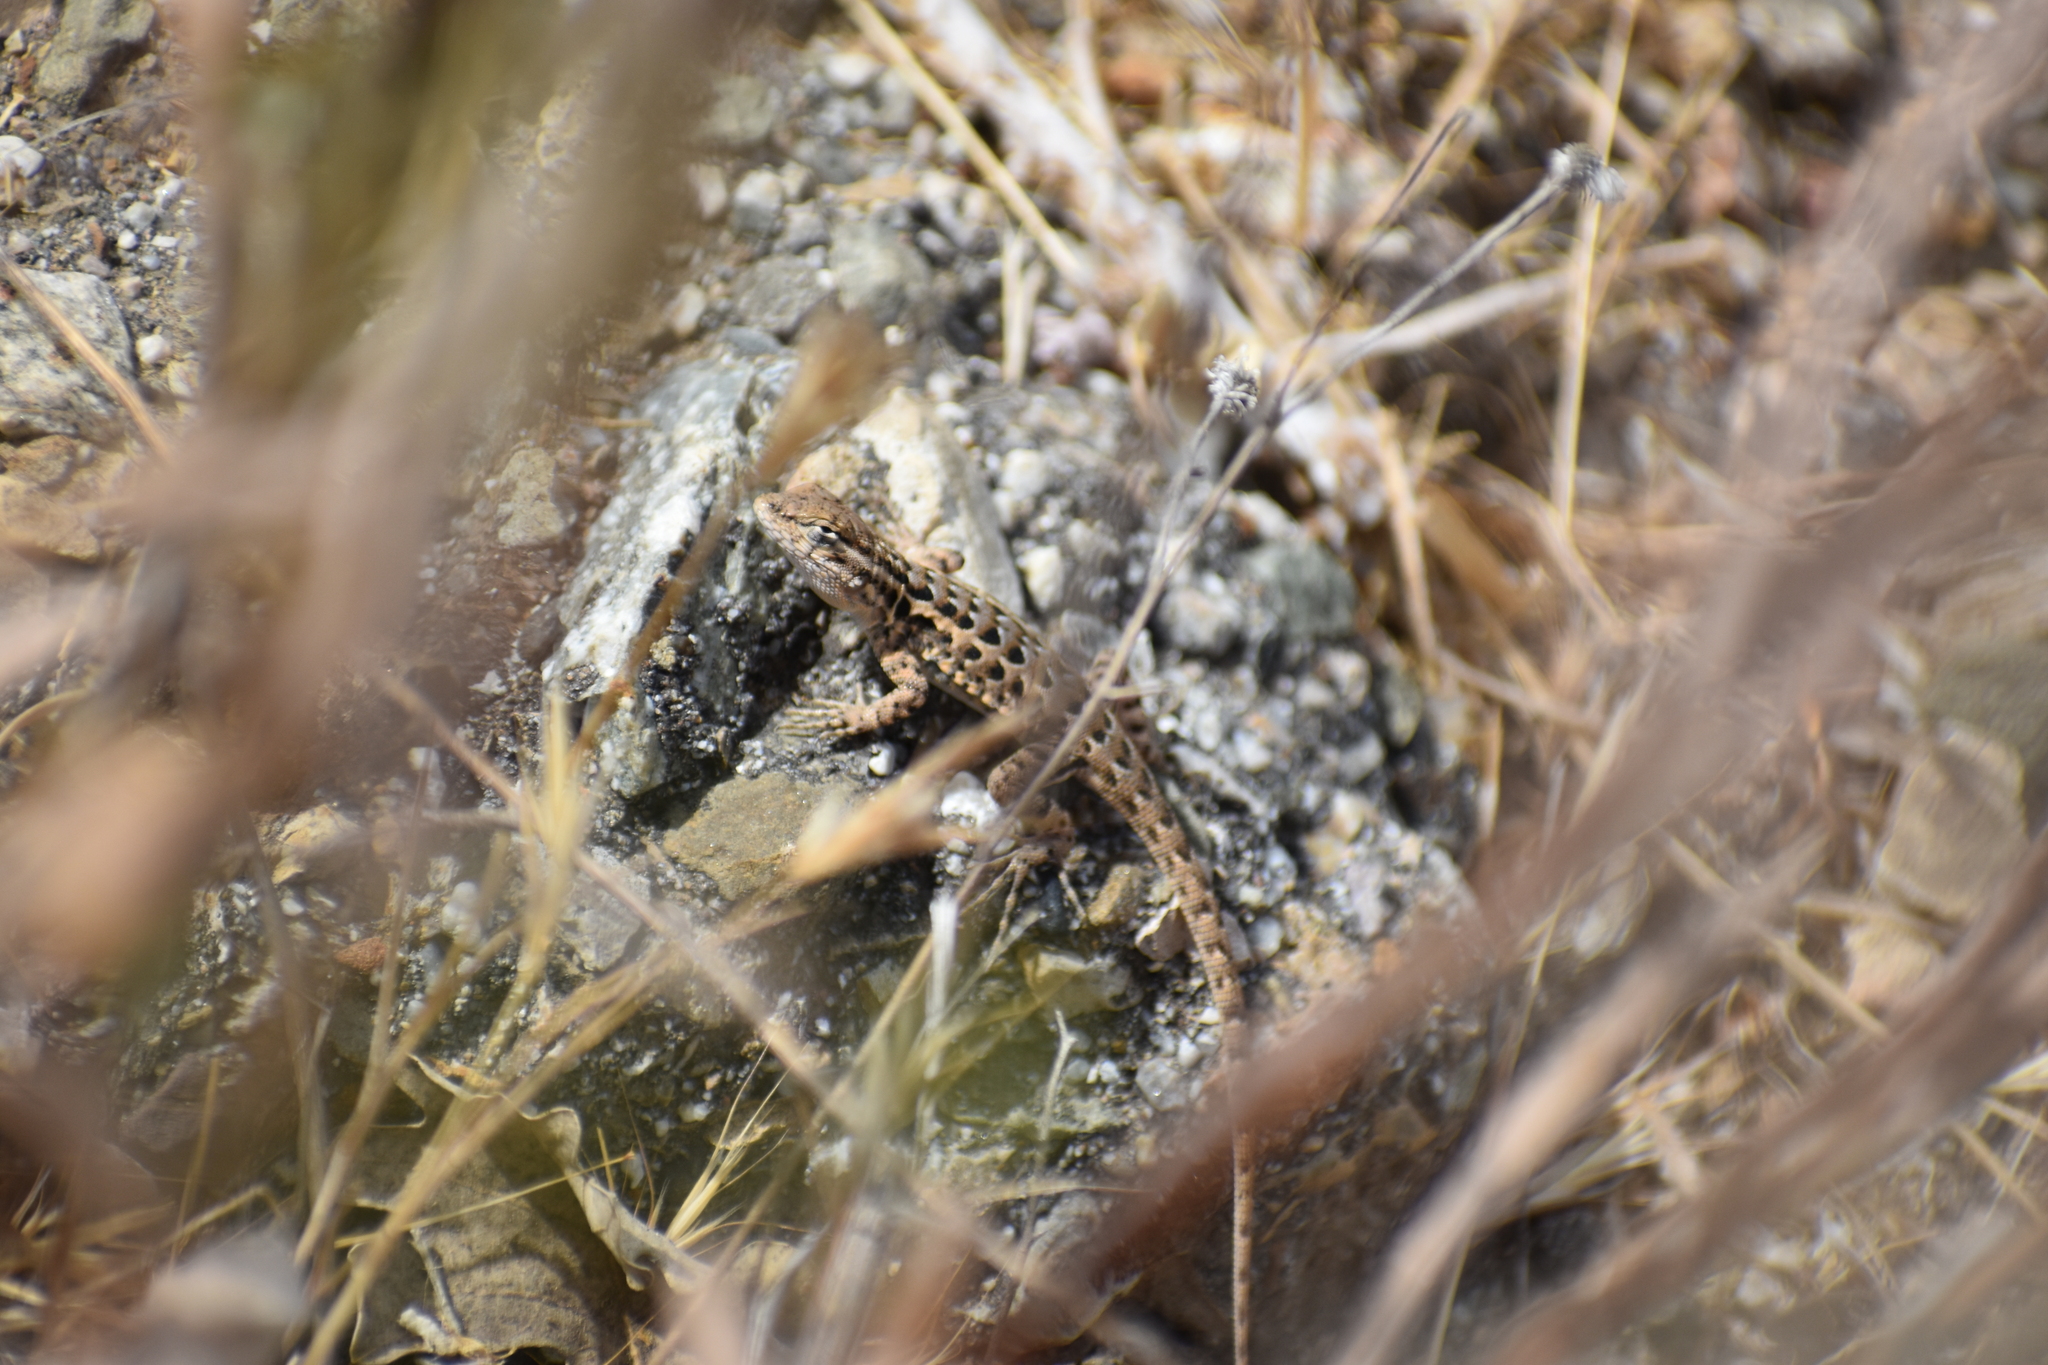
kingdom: Animalia
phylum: Chordata
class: Squamata
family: Phrynosomatidae
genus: Uta
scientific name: Uta stansburiana
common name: Side-blotched lizard
